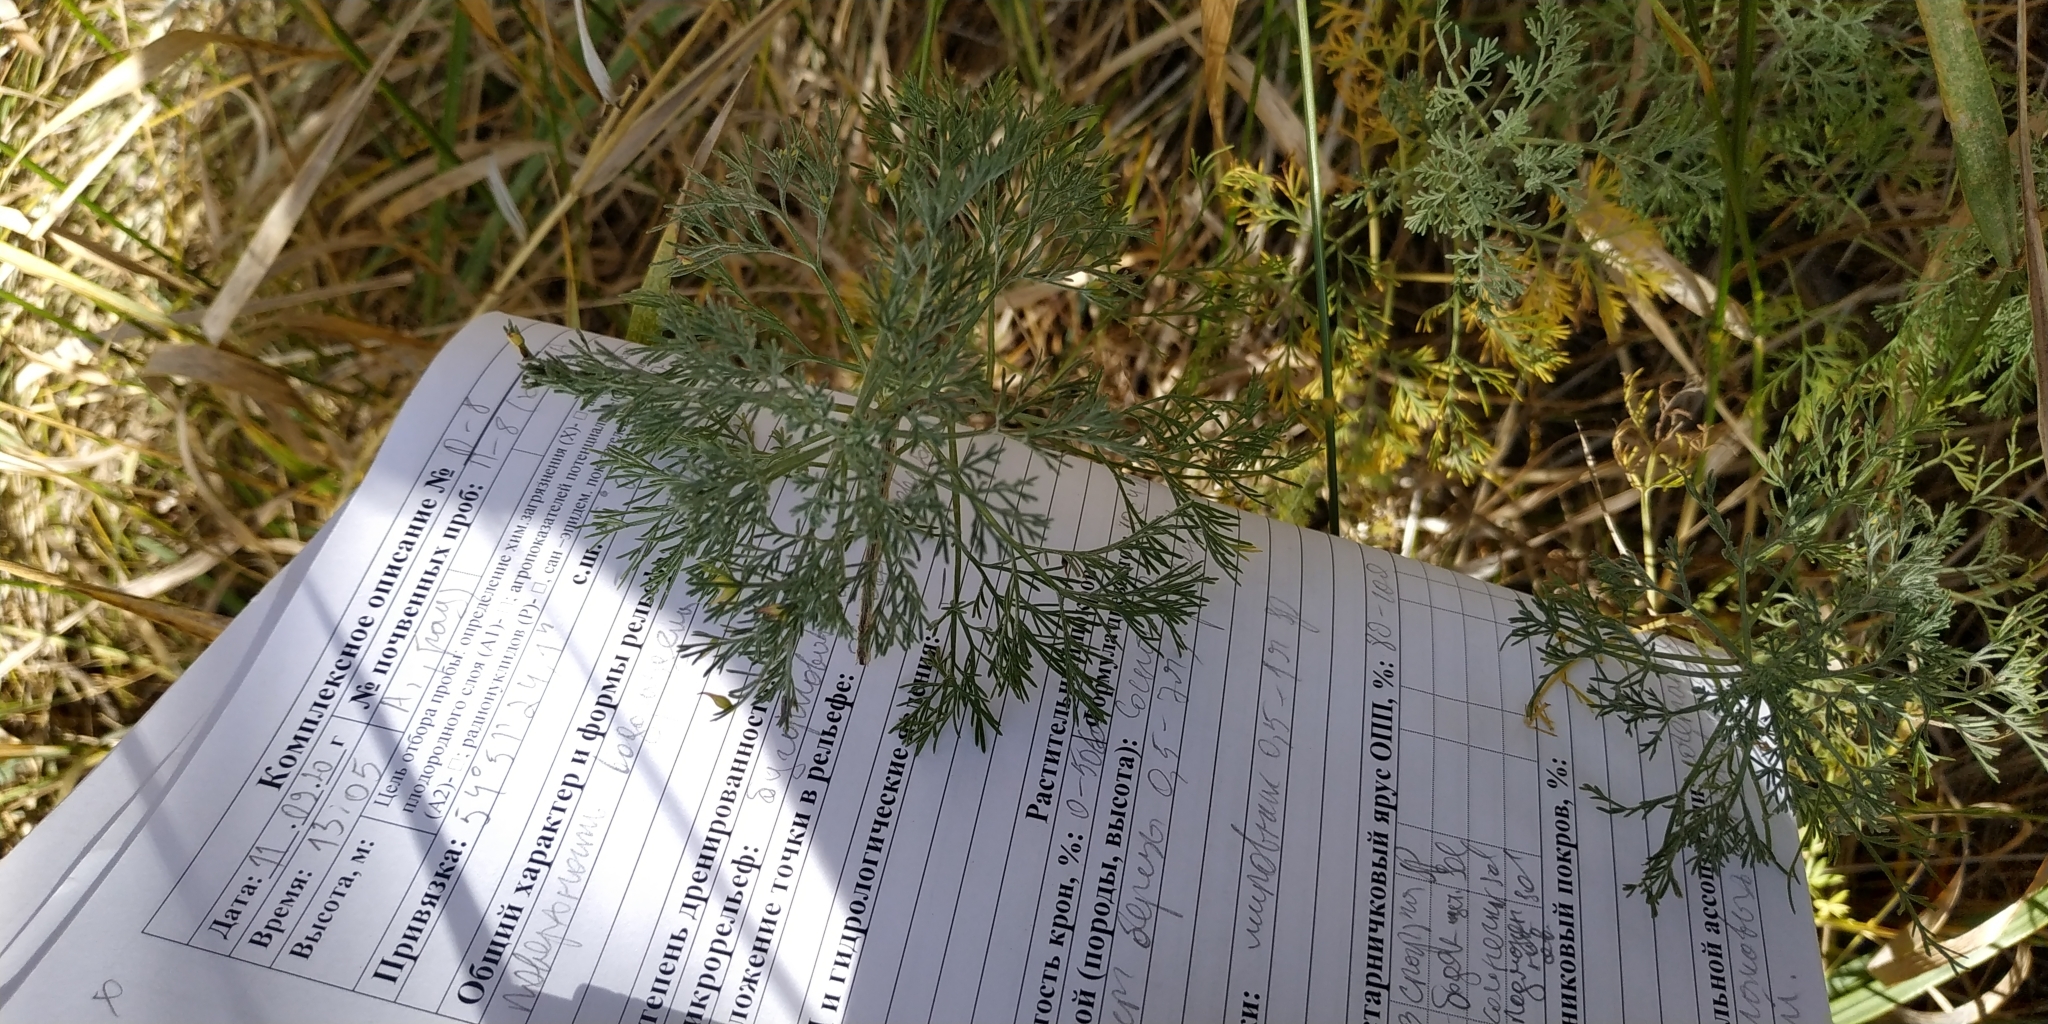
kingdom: Plantae
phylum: Tracheophyta
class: Magnoliopsida
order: Asterales
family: Asteraceae
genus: Artemisia
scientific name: Artemisia abrotanum
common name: Southernwood
